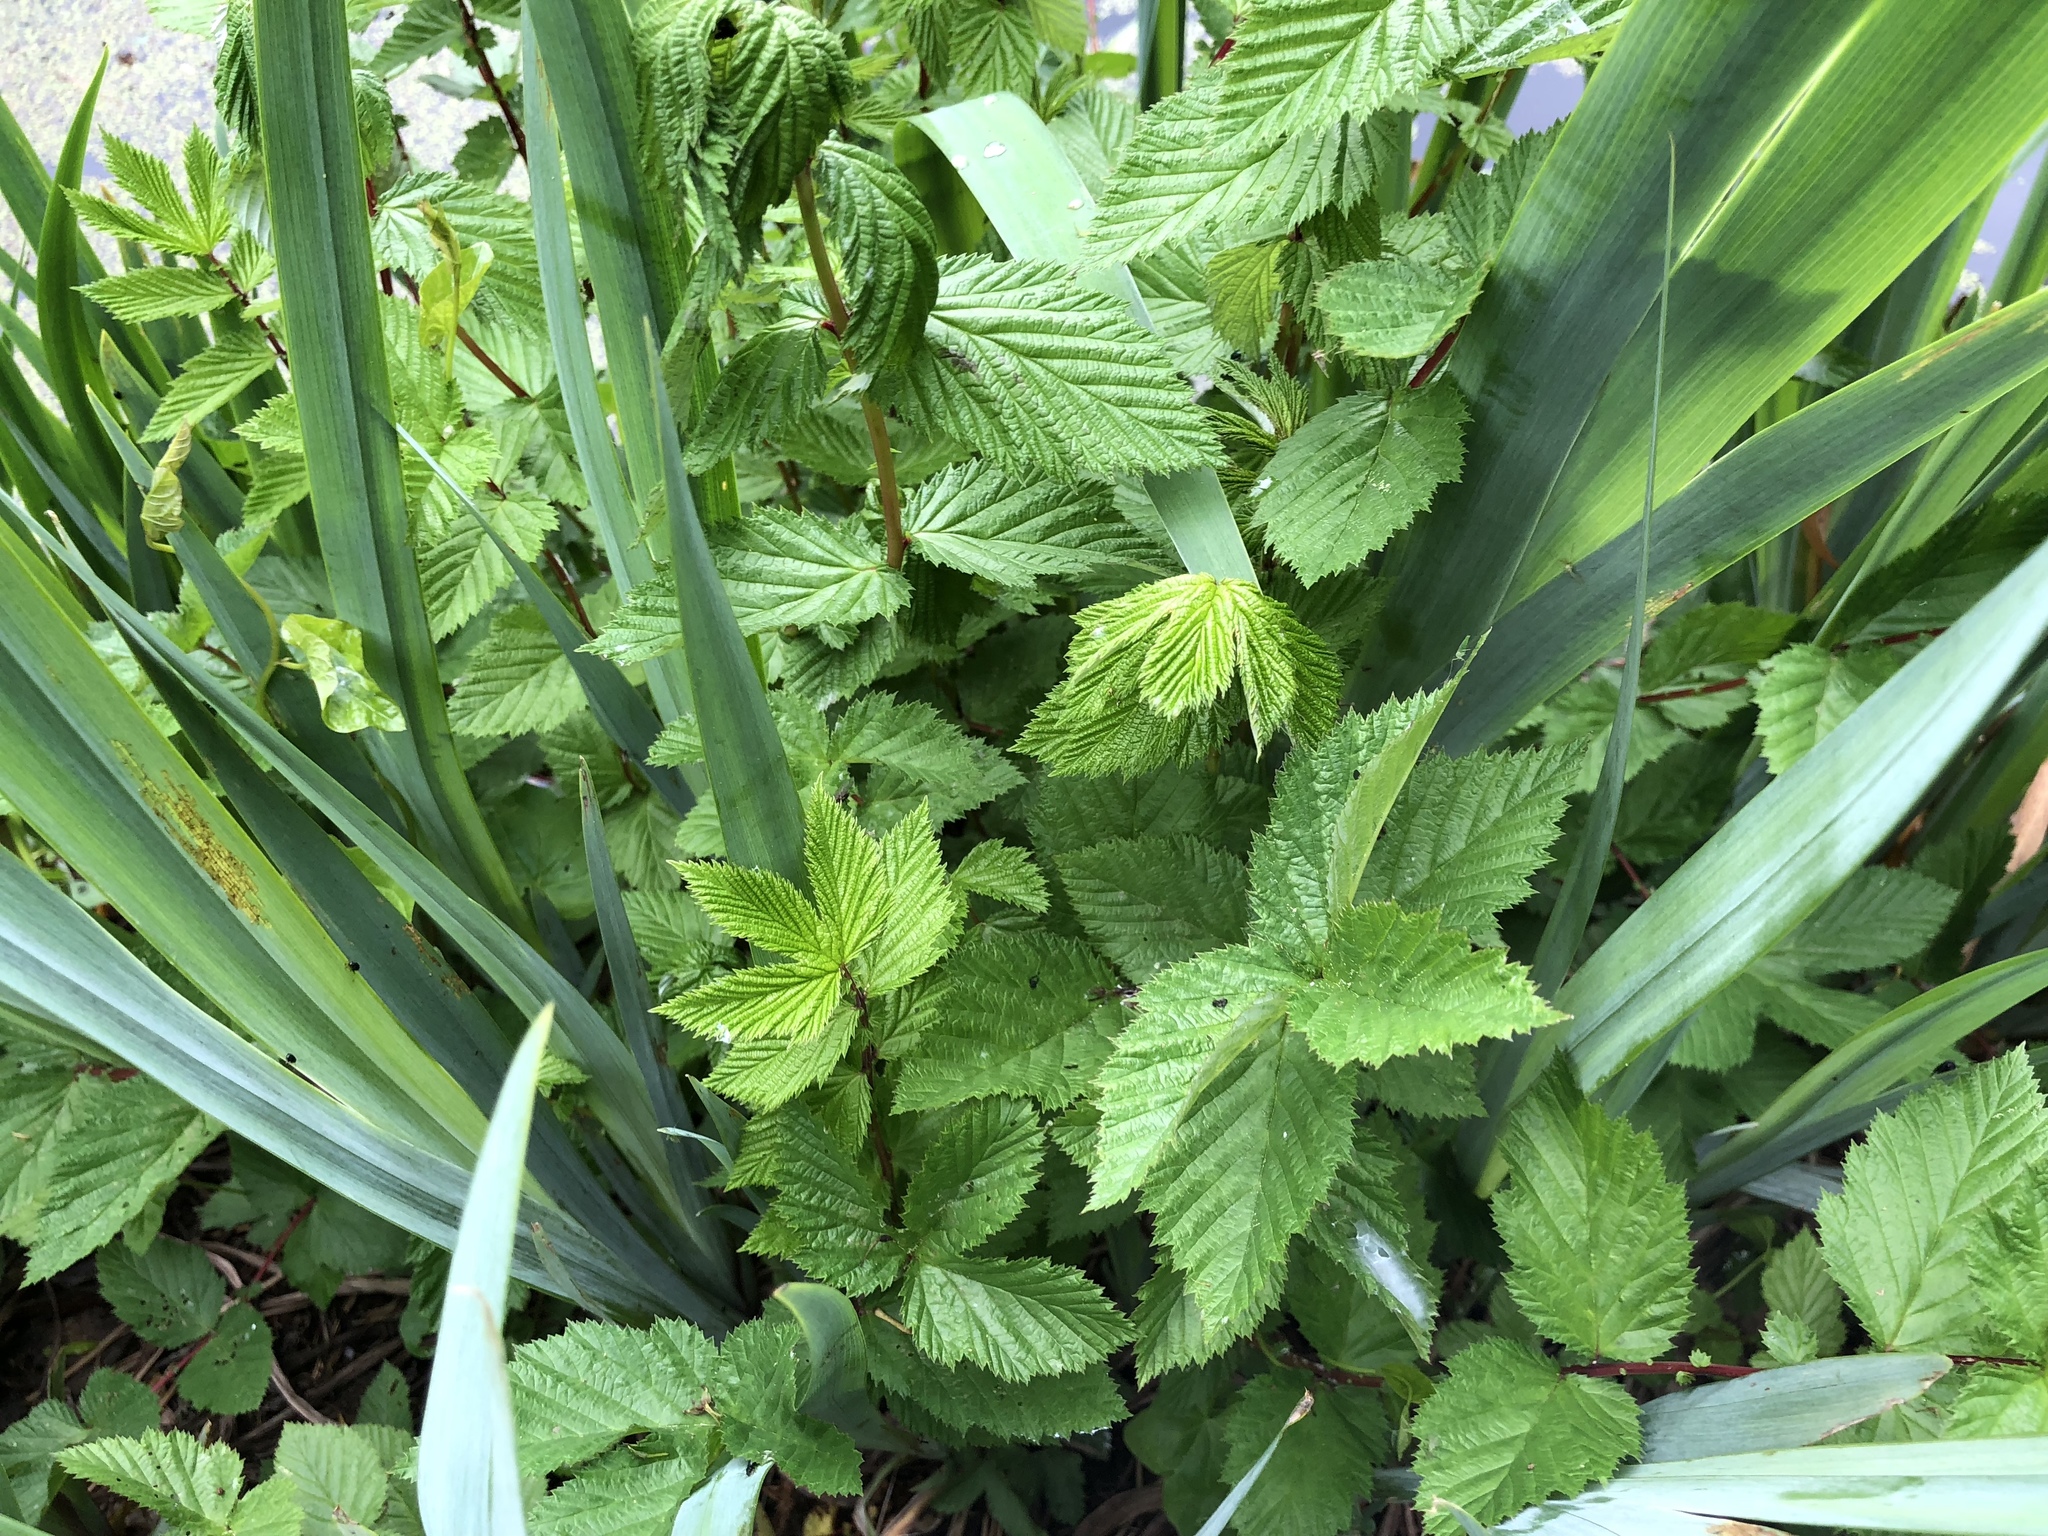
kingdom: Plantae
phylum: Tracheophyta
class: Magnoliopsida
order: Rosales
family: Rosaceae
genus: Filipendula
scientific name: Filipendula ulmaria
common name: Meadowsweet
